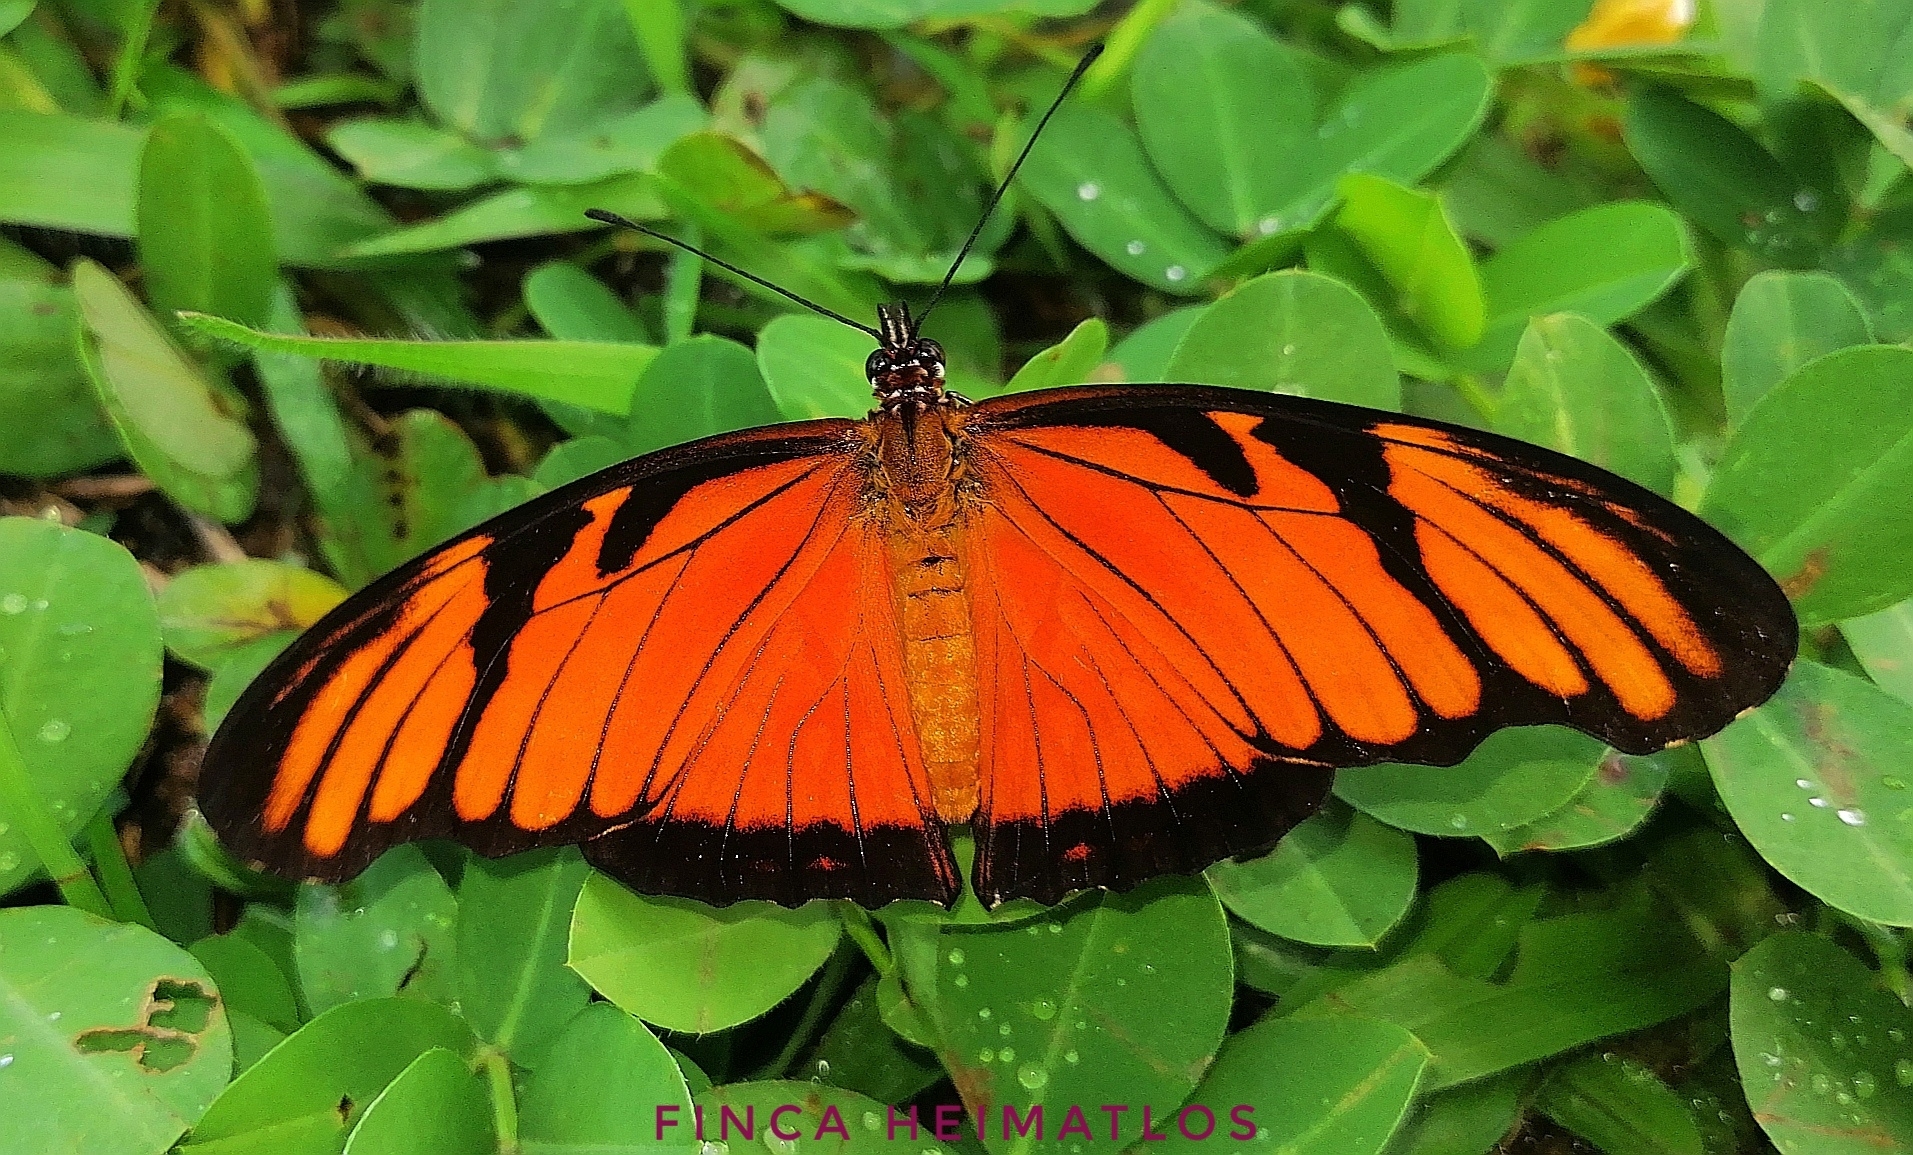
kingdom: Animalia
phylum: Arthropoda
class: Insecta
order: Lepidoptera
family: Nymphalidae
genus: Dione
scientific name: Dione juno
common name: Juno silverspot
